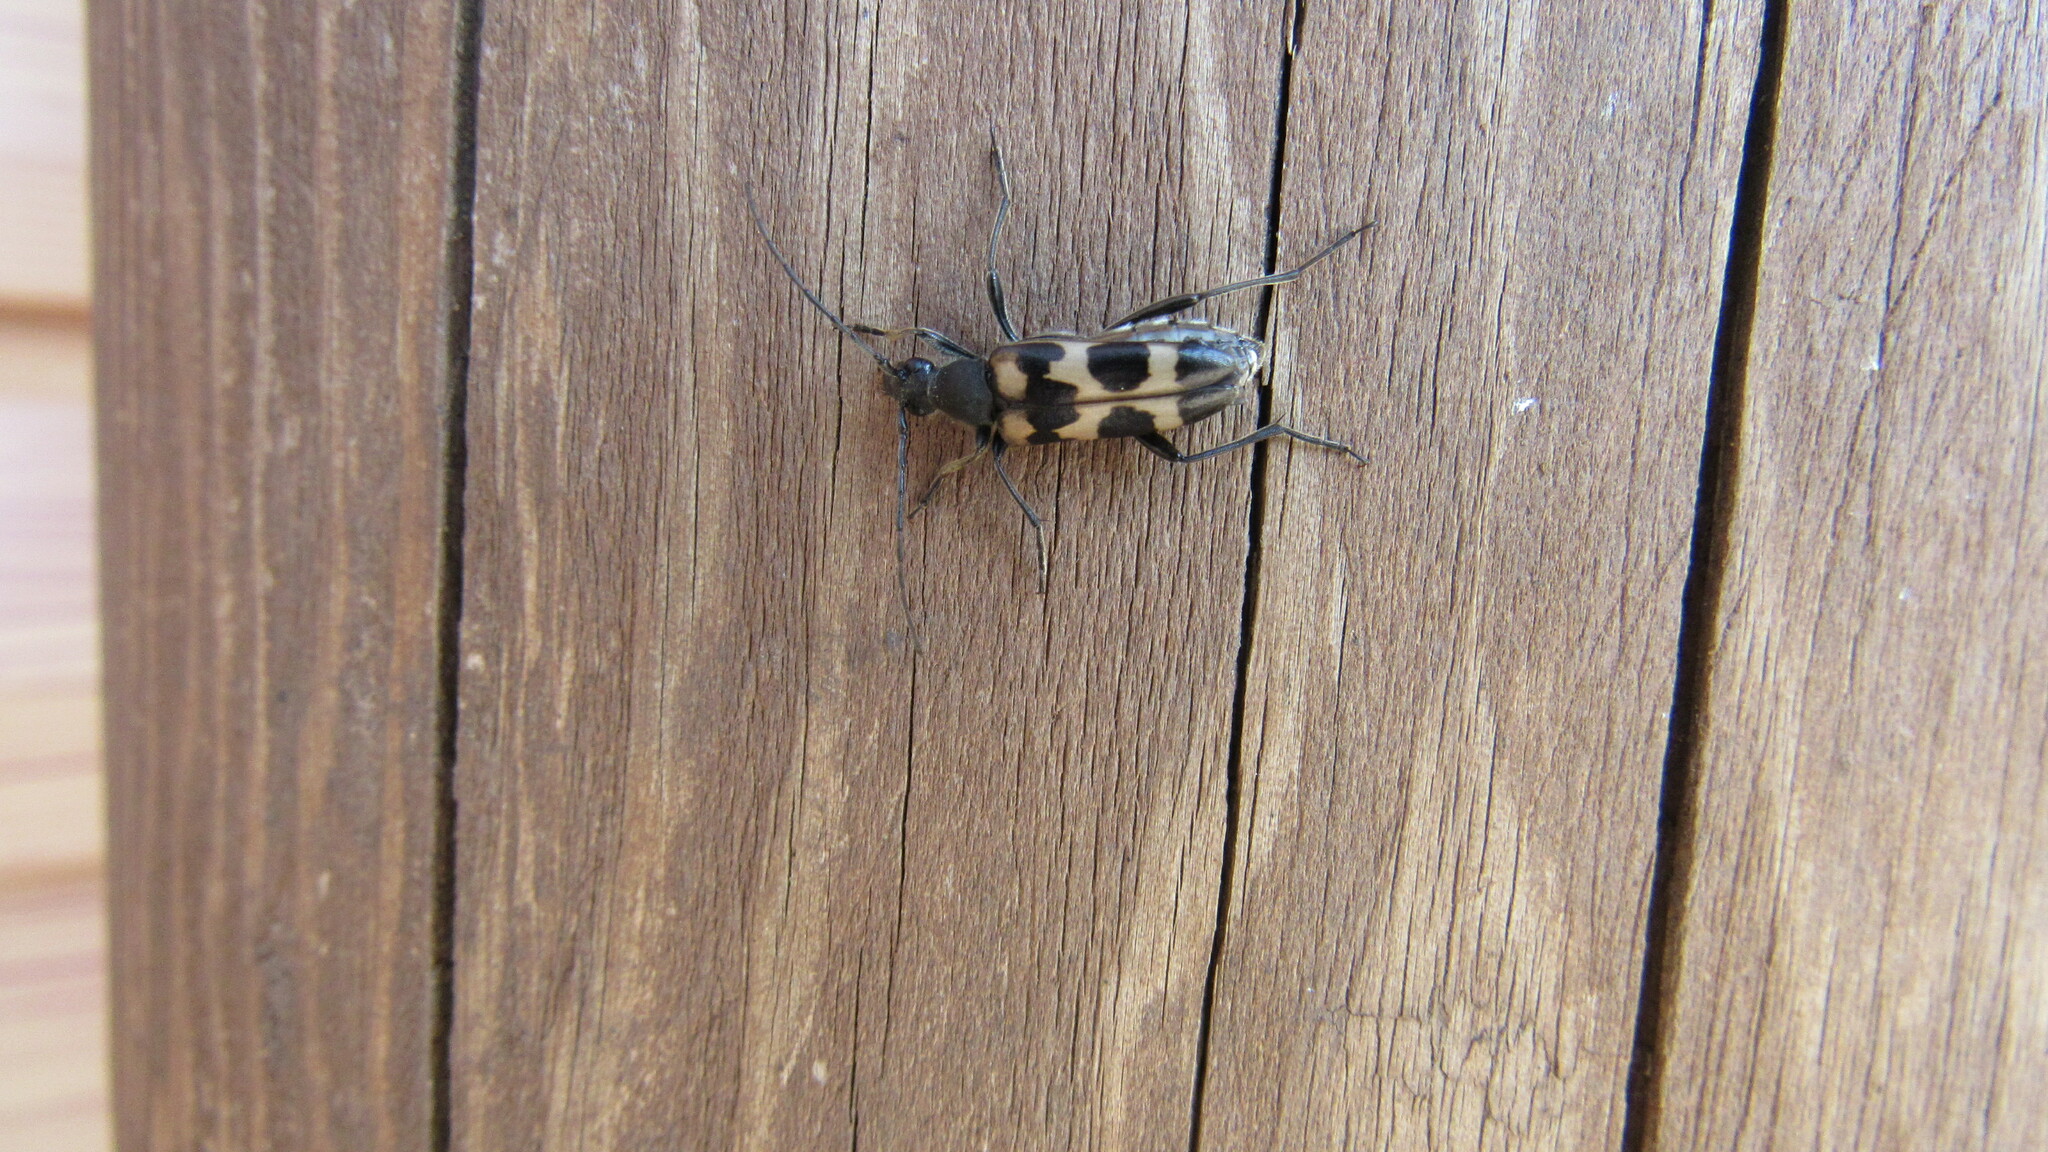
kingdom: Animalia
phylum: Arthropoda
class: Insecta
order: Coleoptera
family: Cerambycidae
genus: Judolia
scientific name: Judolia dentatofasciata
